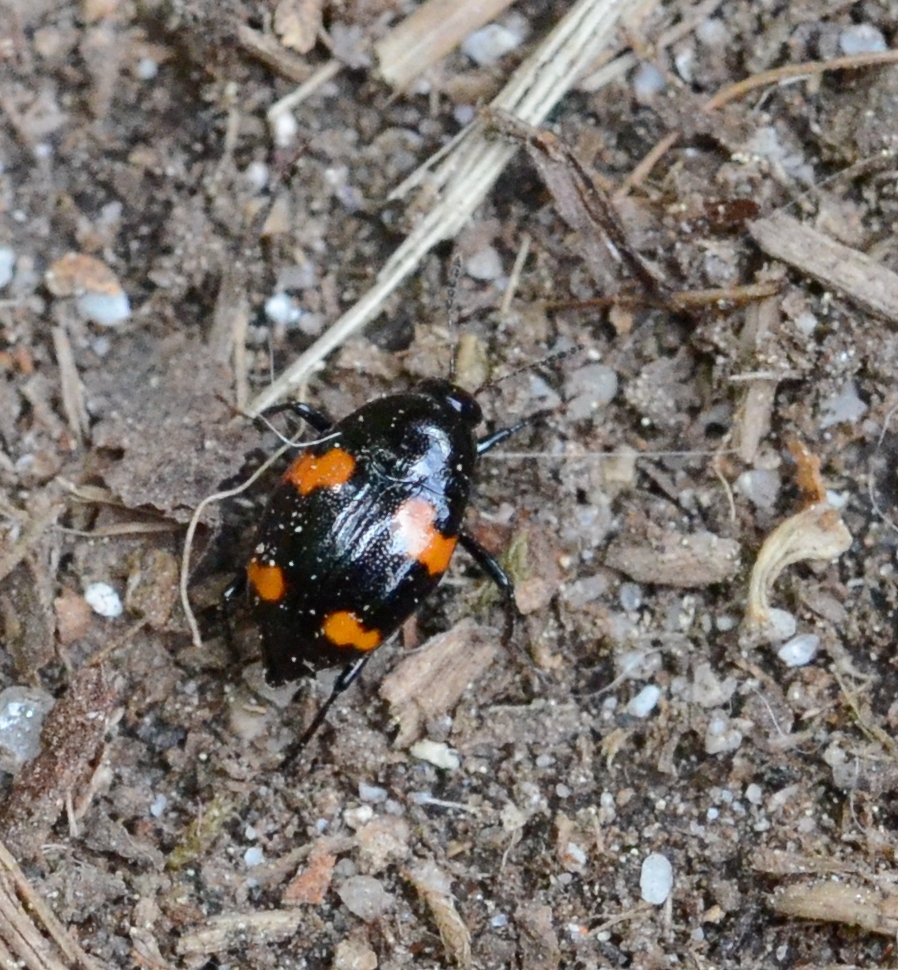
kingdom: Animalia
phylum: Arthropoda
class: Insecta
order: Coleoptera
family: Staphylinidae
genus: Scaphidium
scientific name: Scaphidium quadrimaculatum
